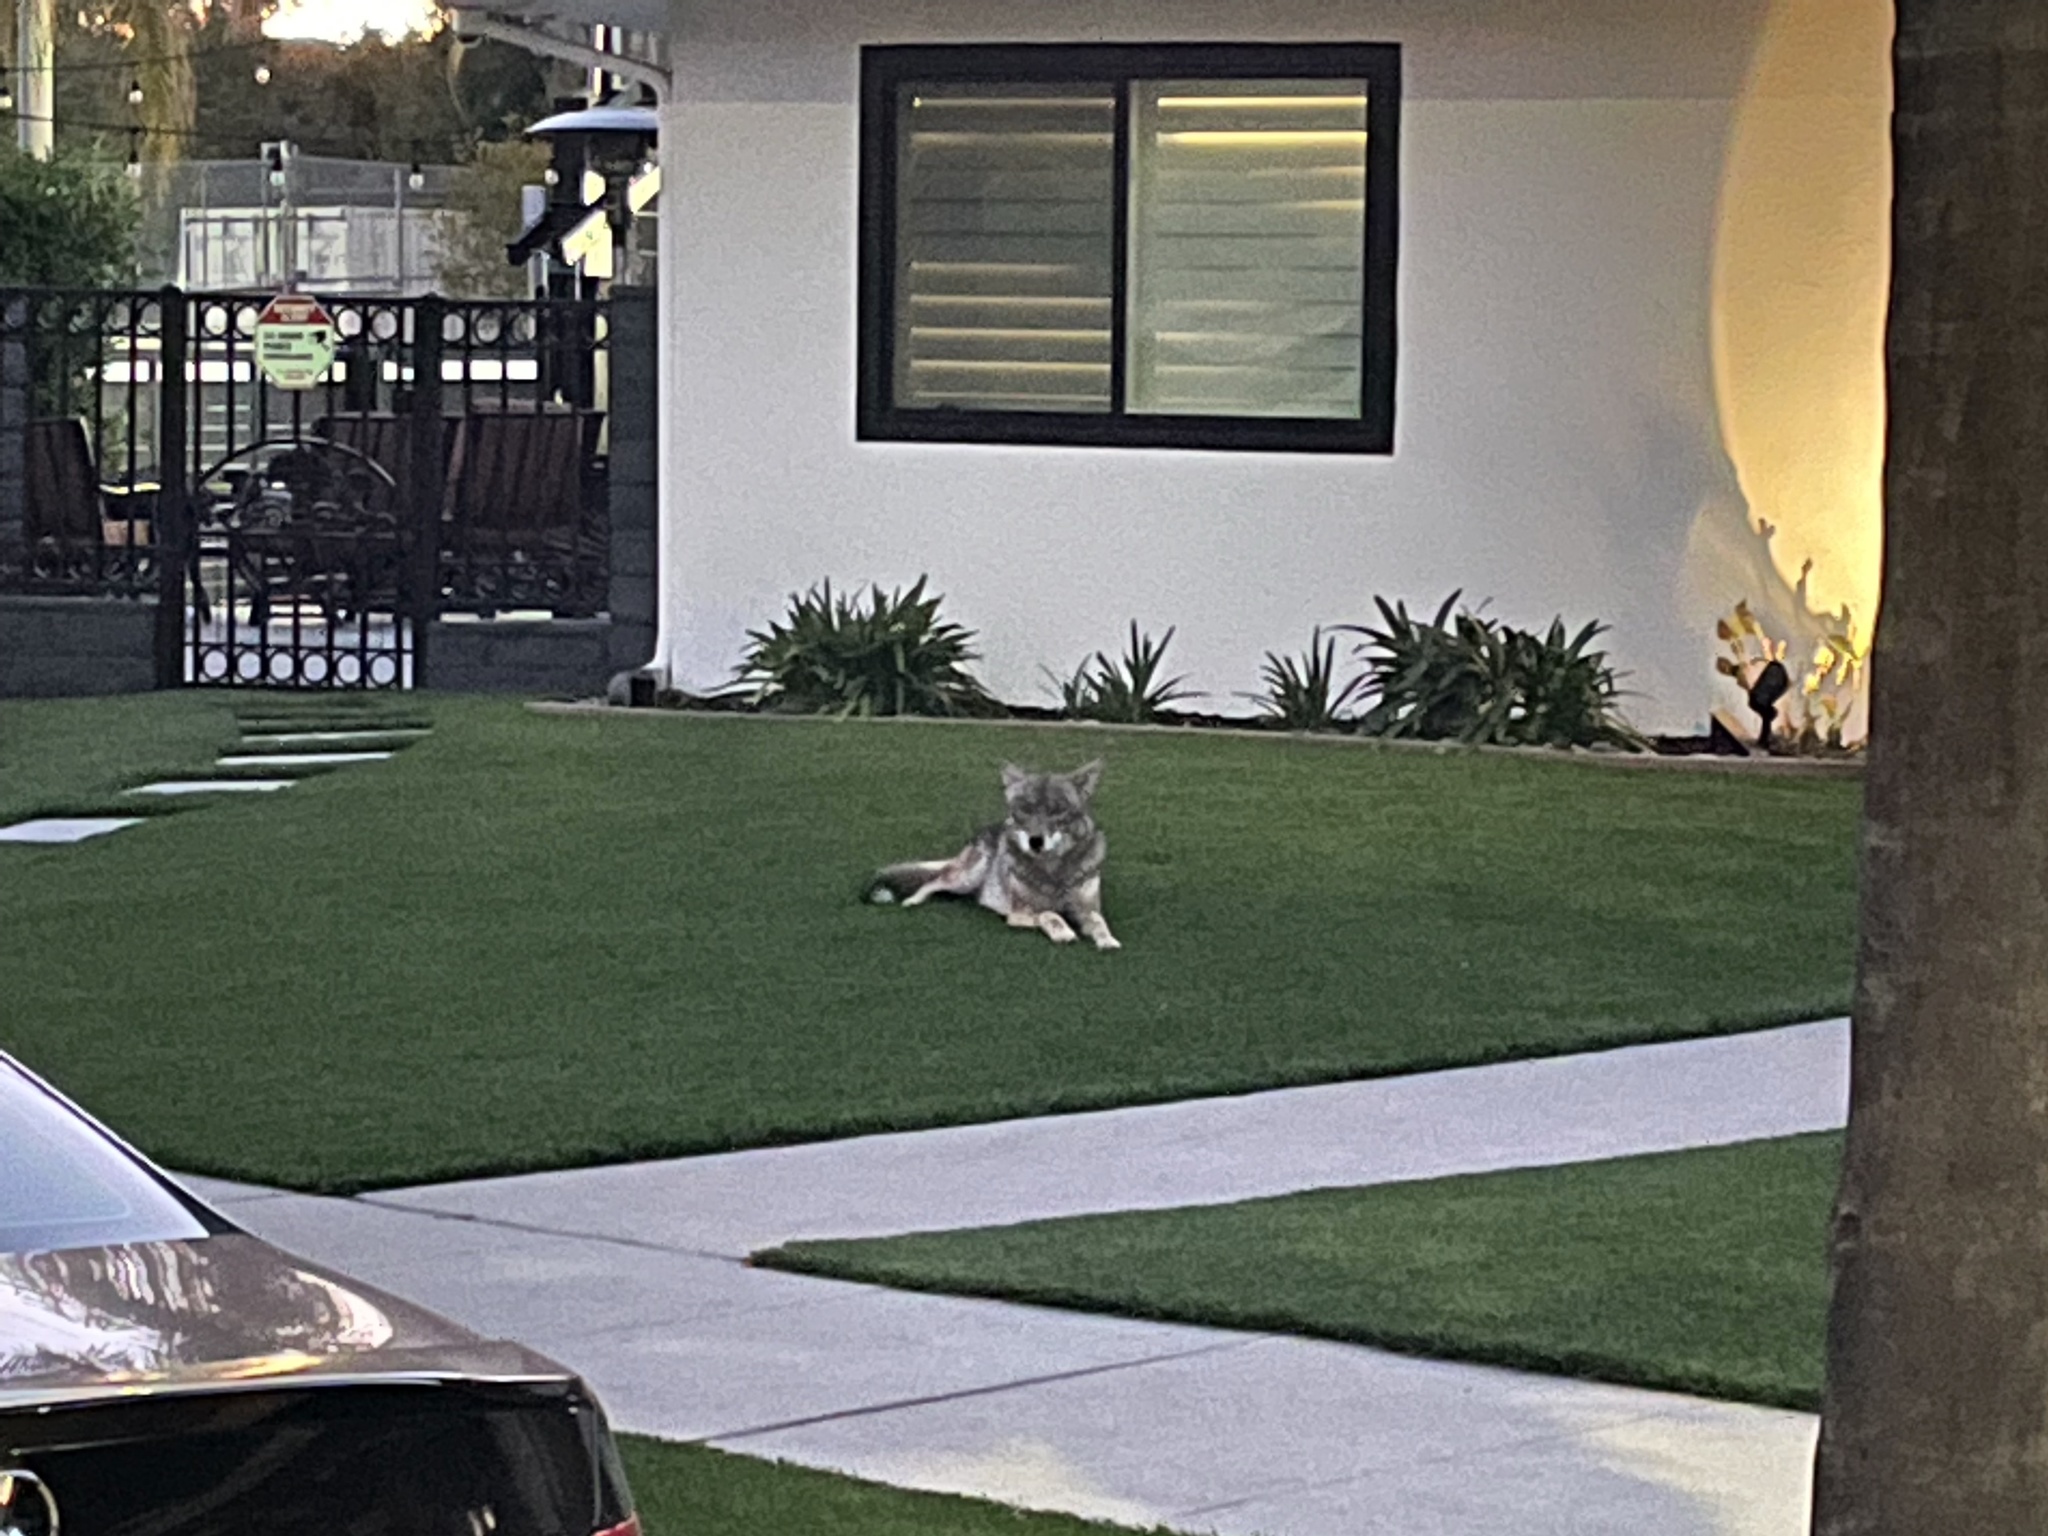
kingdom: Animalia
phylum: Chordata
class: Mammalia
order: Carnivora
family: Canidae
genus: Canis
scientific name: Canis latrans
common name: Coyote
